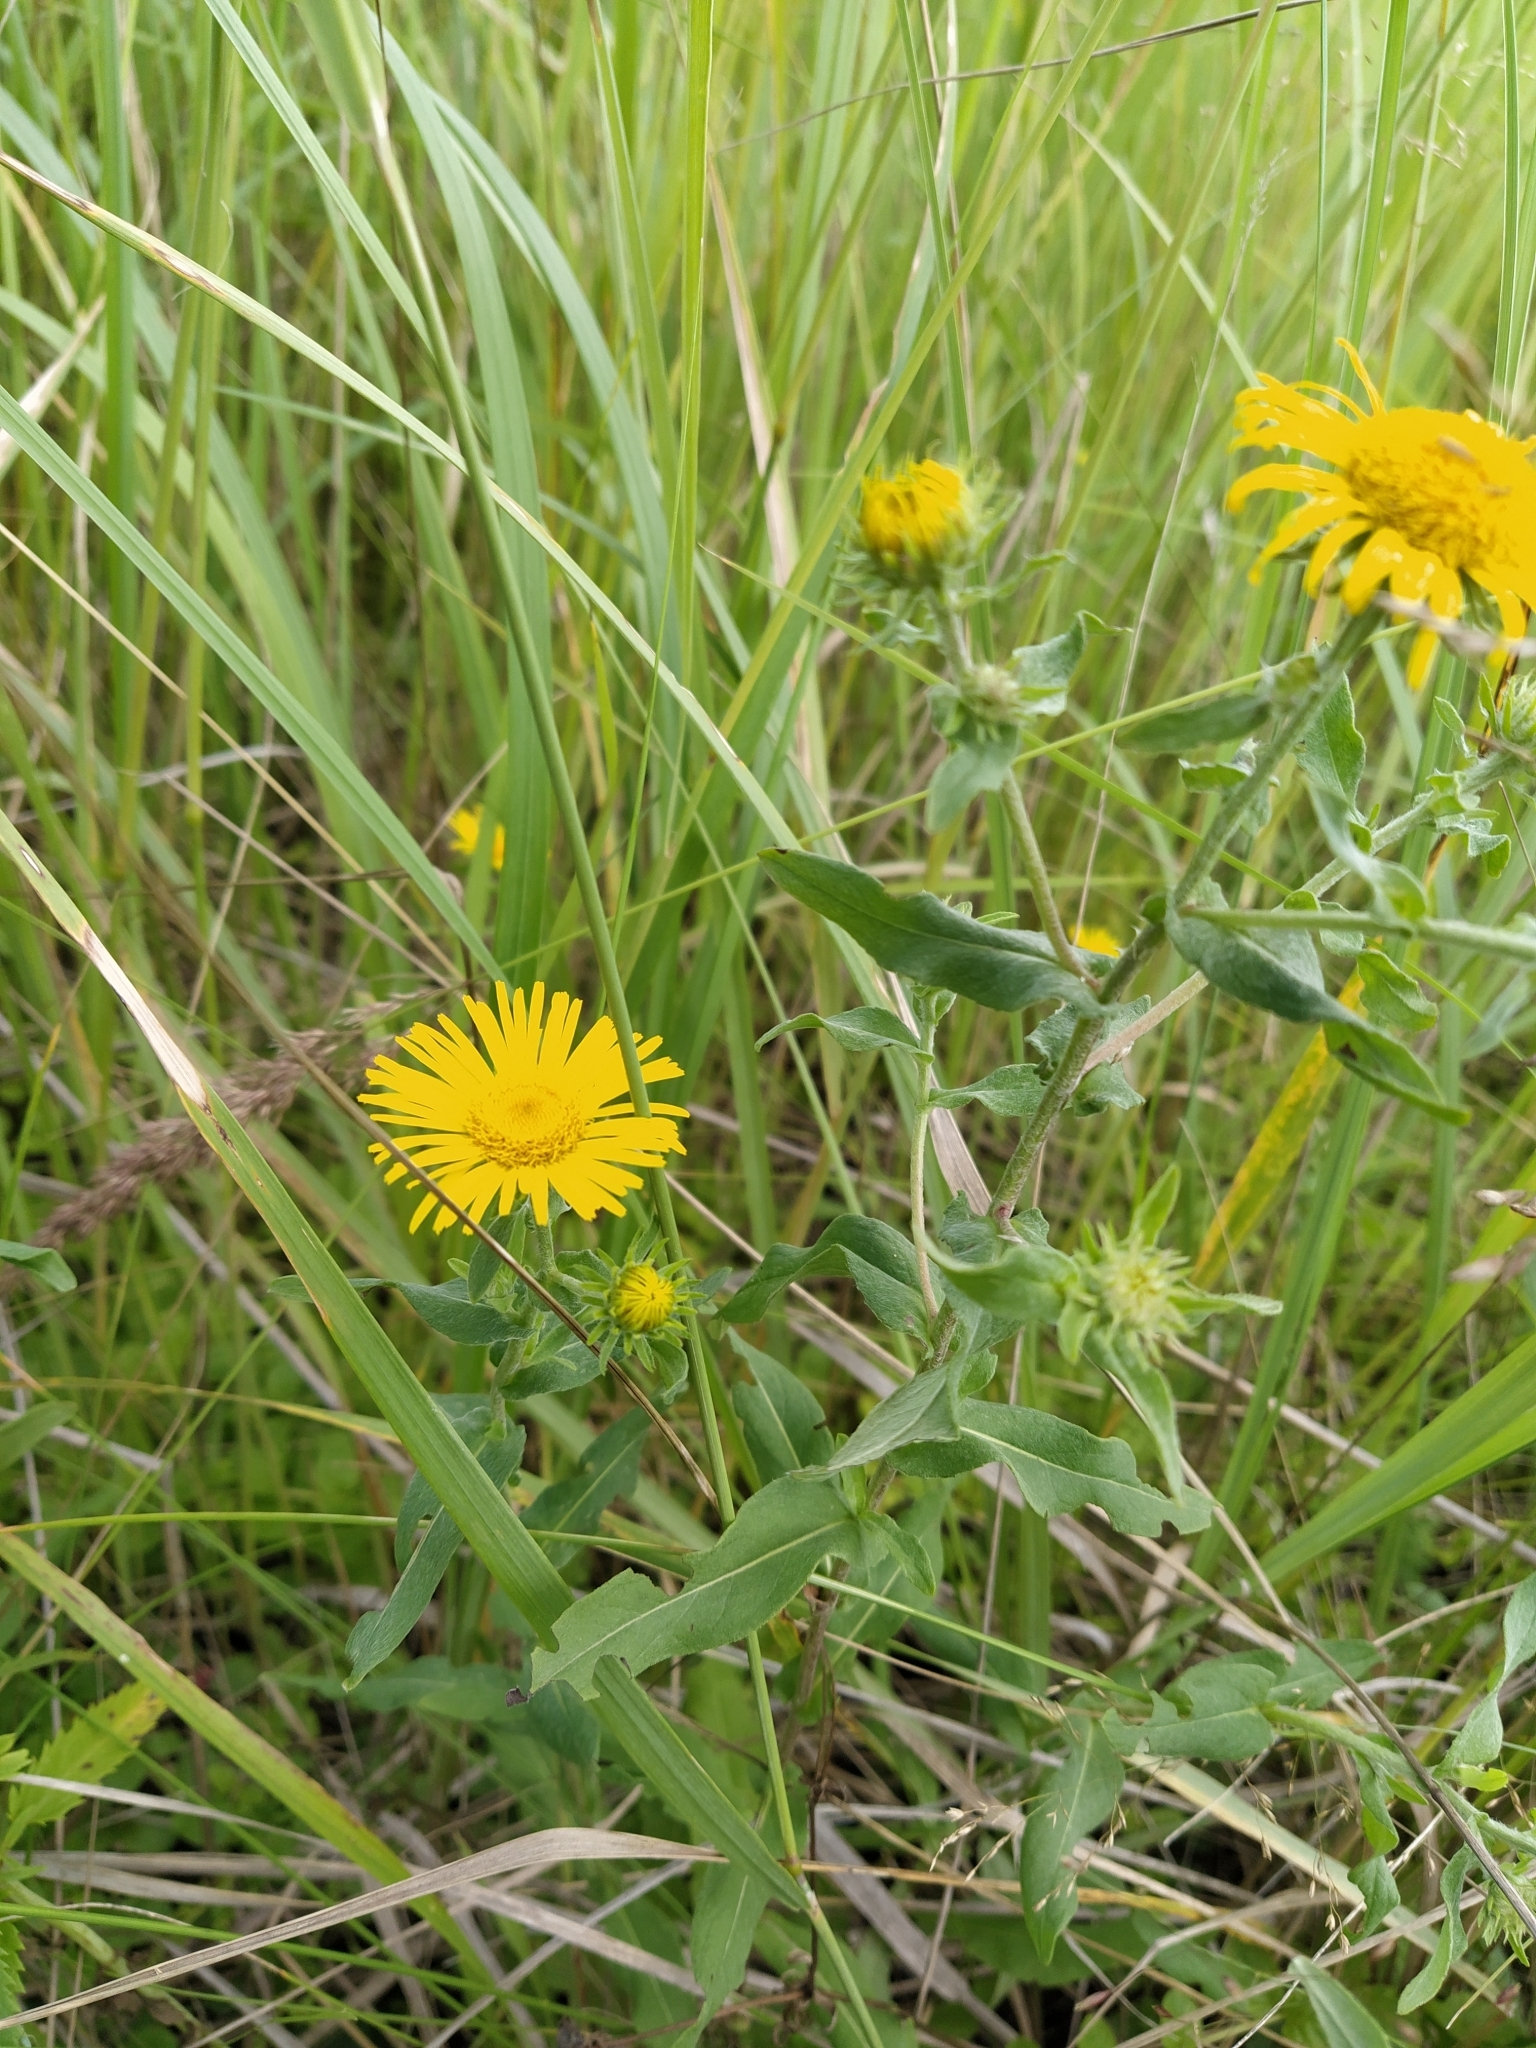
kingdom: Plantae
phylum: Tracheophyta
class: Magnoliopsida
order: Asterales
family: Asteraceae
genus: Pentanema
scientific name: Pentanema britannicum
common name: British elecampane
